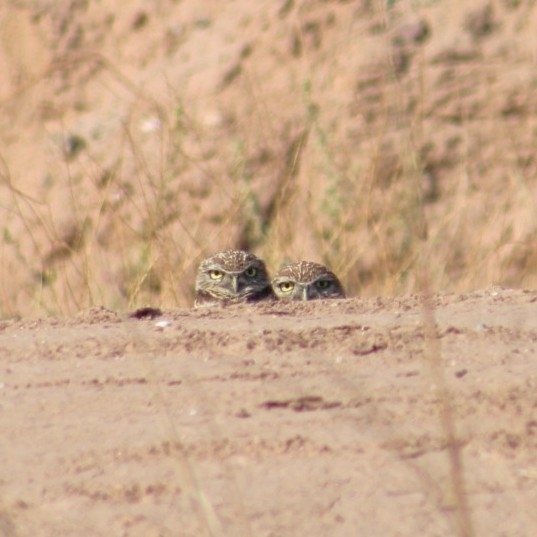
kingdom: Animalia
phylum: Chordata
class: Aves
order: Strigiformes
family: Strigidae
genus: Athene
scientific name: Athene cunicularia
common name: Burrowing owl
